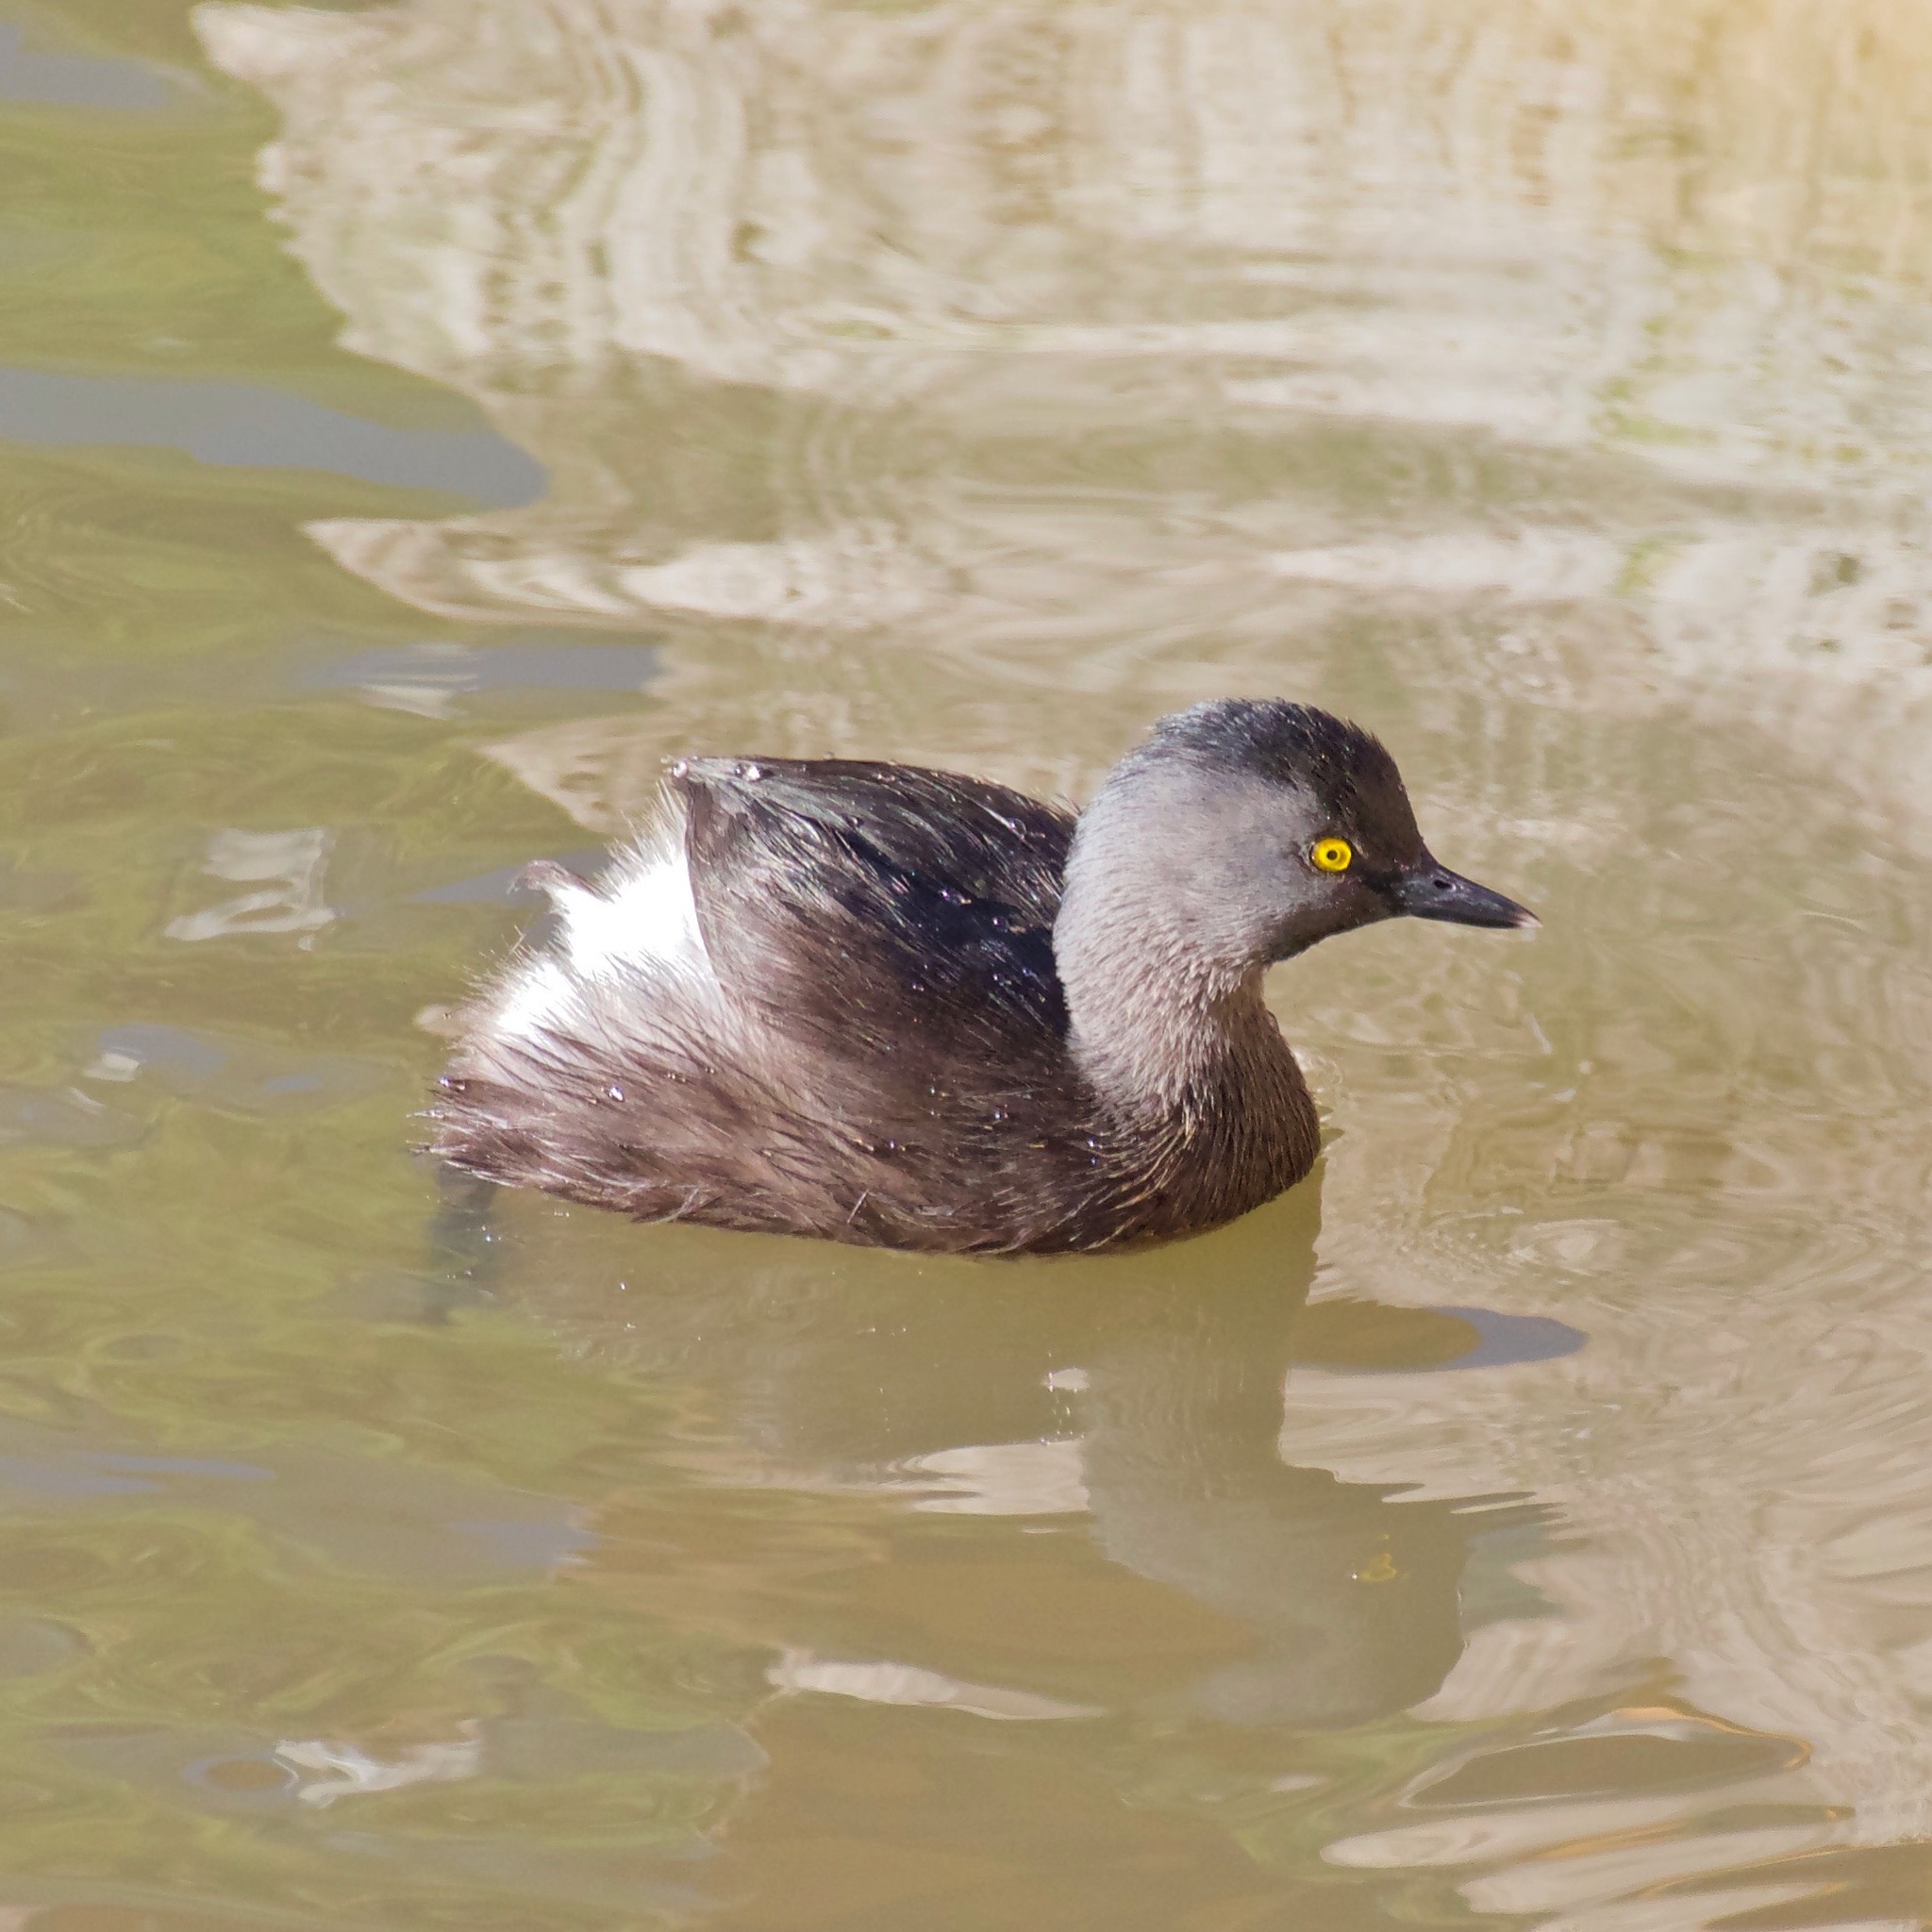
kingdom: Animalia
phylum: Chordata
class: Aves
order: Podicipediformes
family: Podicipedidae
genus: Tachybaptus
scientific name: Tachybaptus dominicus
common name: Least grebe
